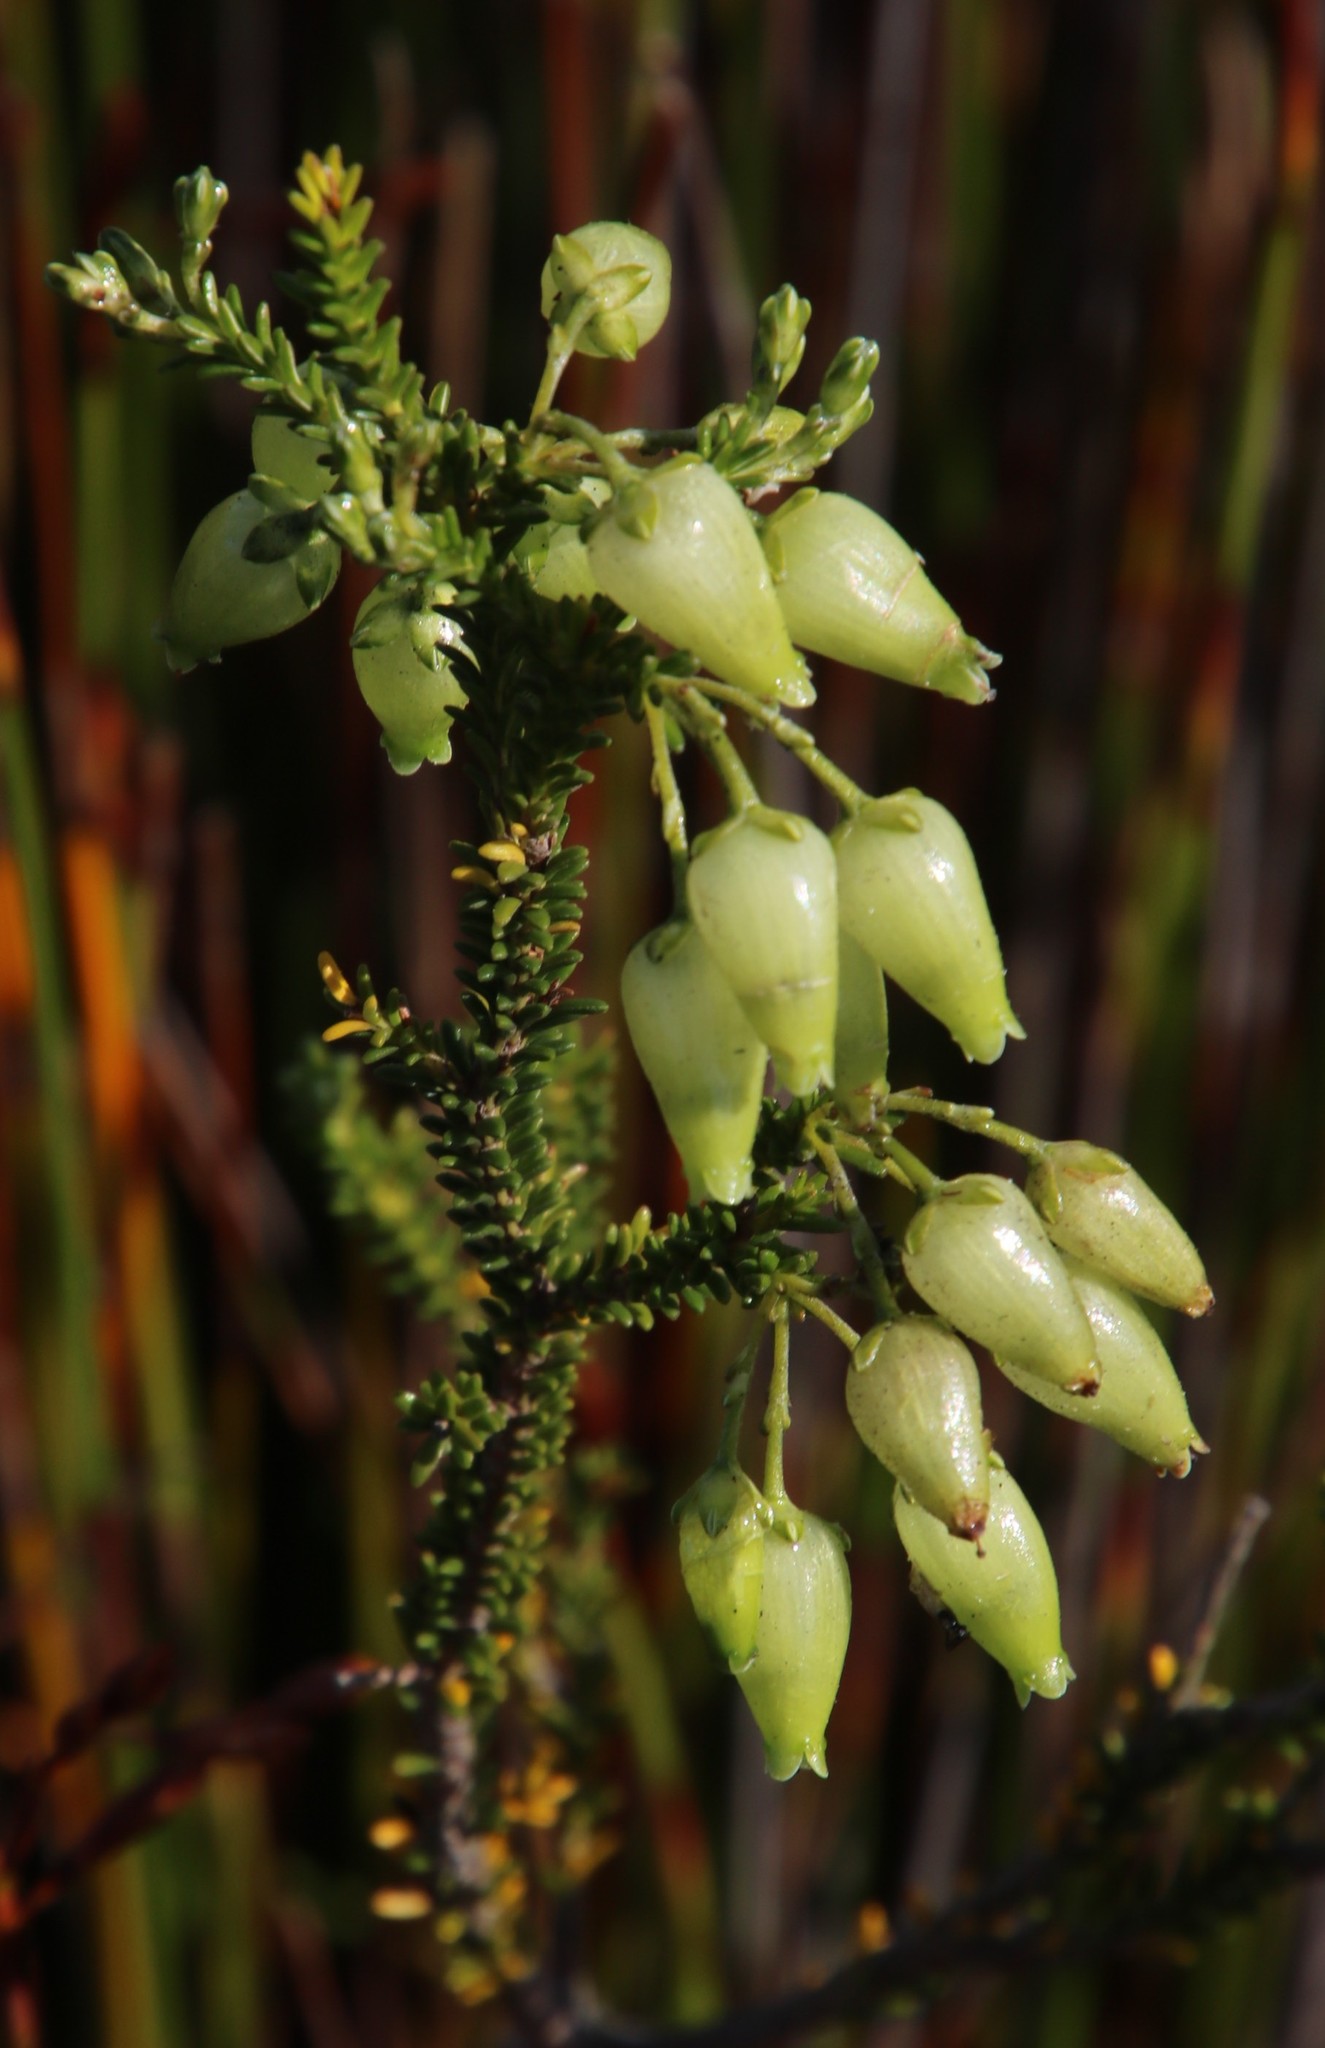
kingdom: Plantae
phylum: Tracheophyta
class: Magnoliopsida
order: Ericales
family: Ericaceae
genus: Erica
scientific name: Erica urna-viridis
